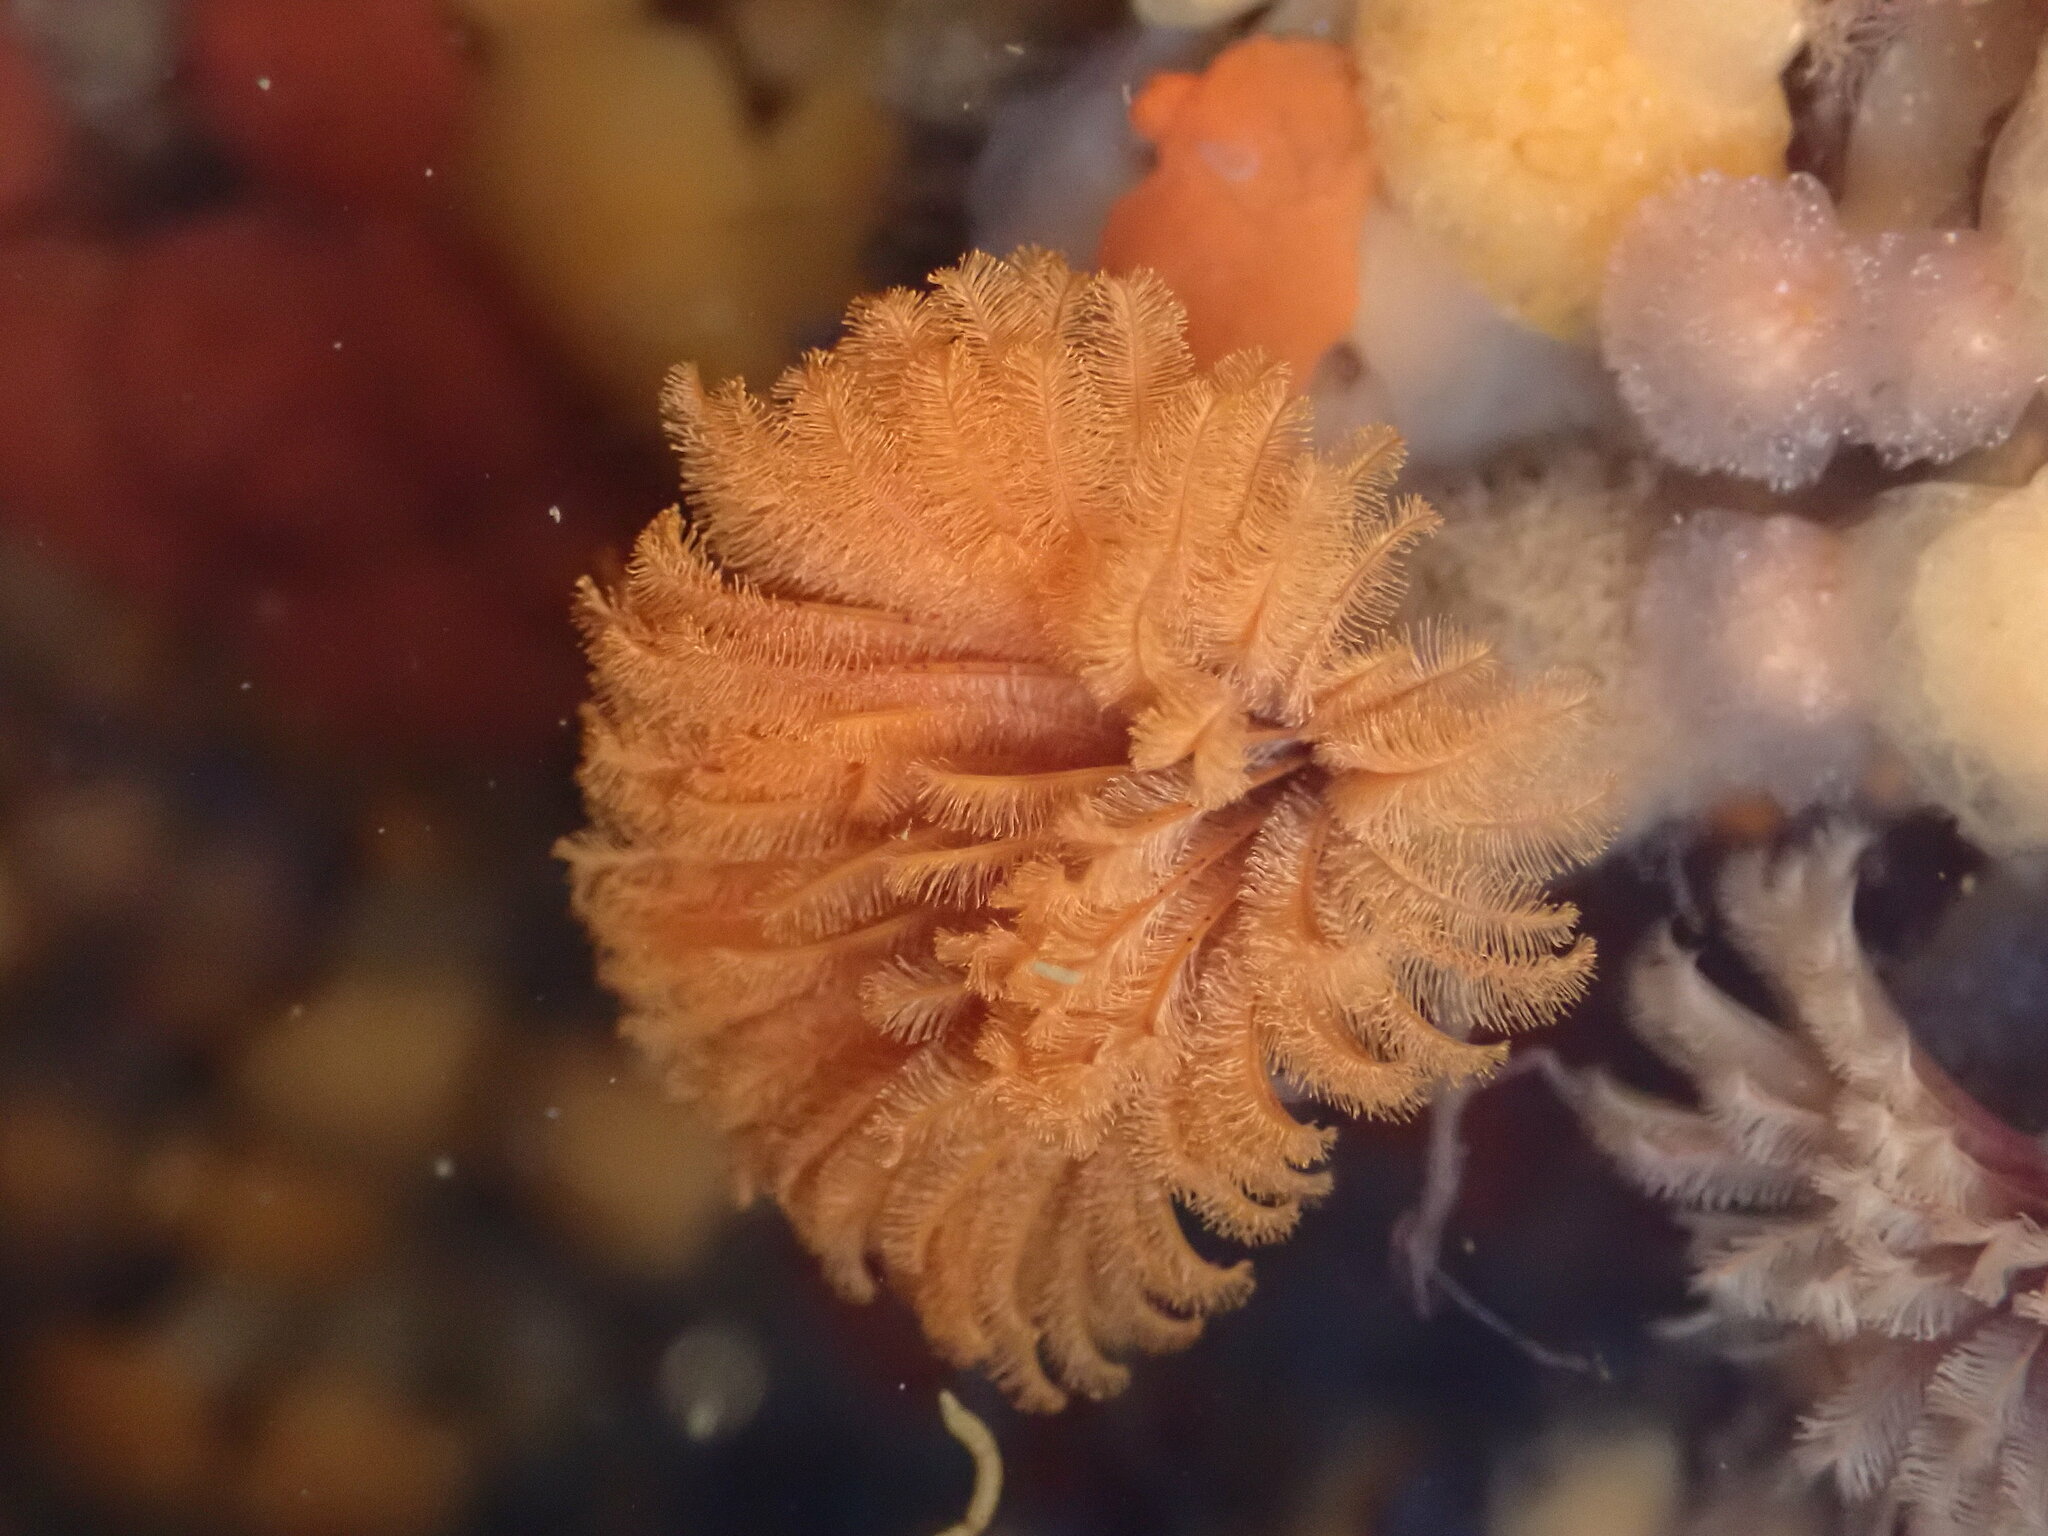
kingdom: Animalia
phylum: Annelida
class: Polychaeta
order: Sabellida
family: Sabellidae
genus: Eudistylia
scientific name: Eudistylia polymorpha
